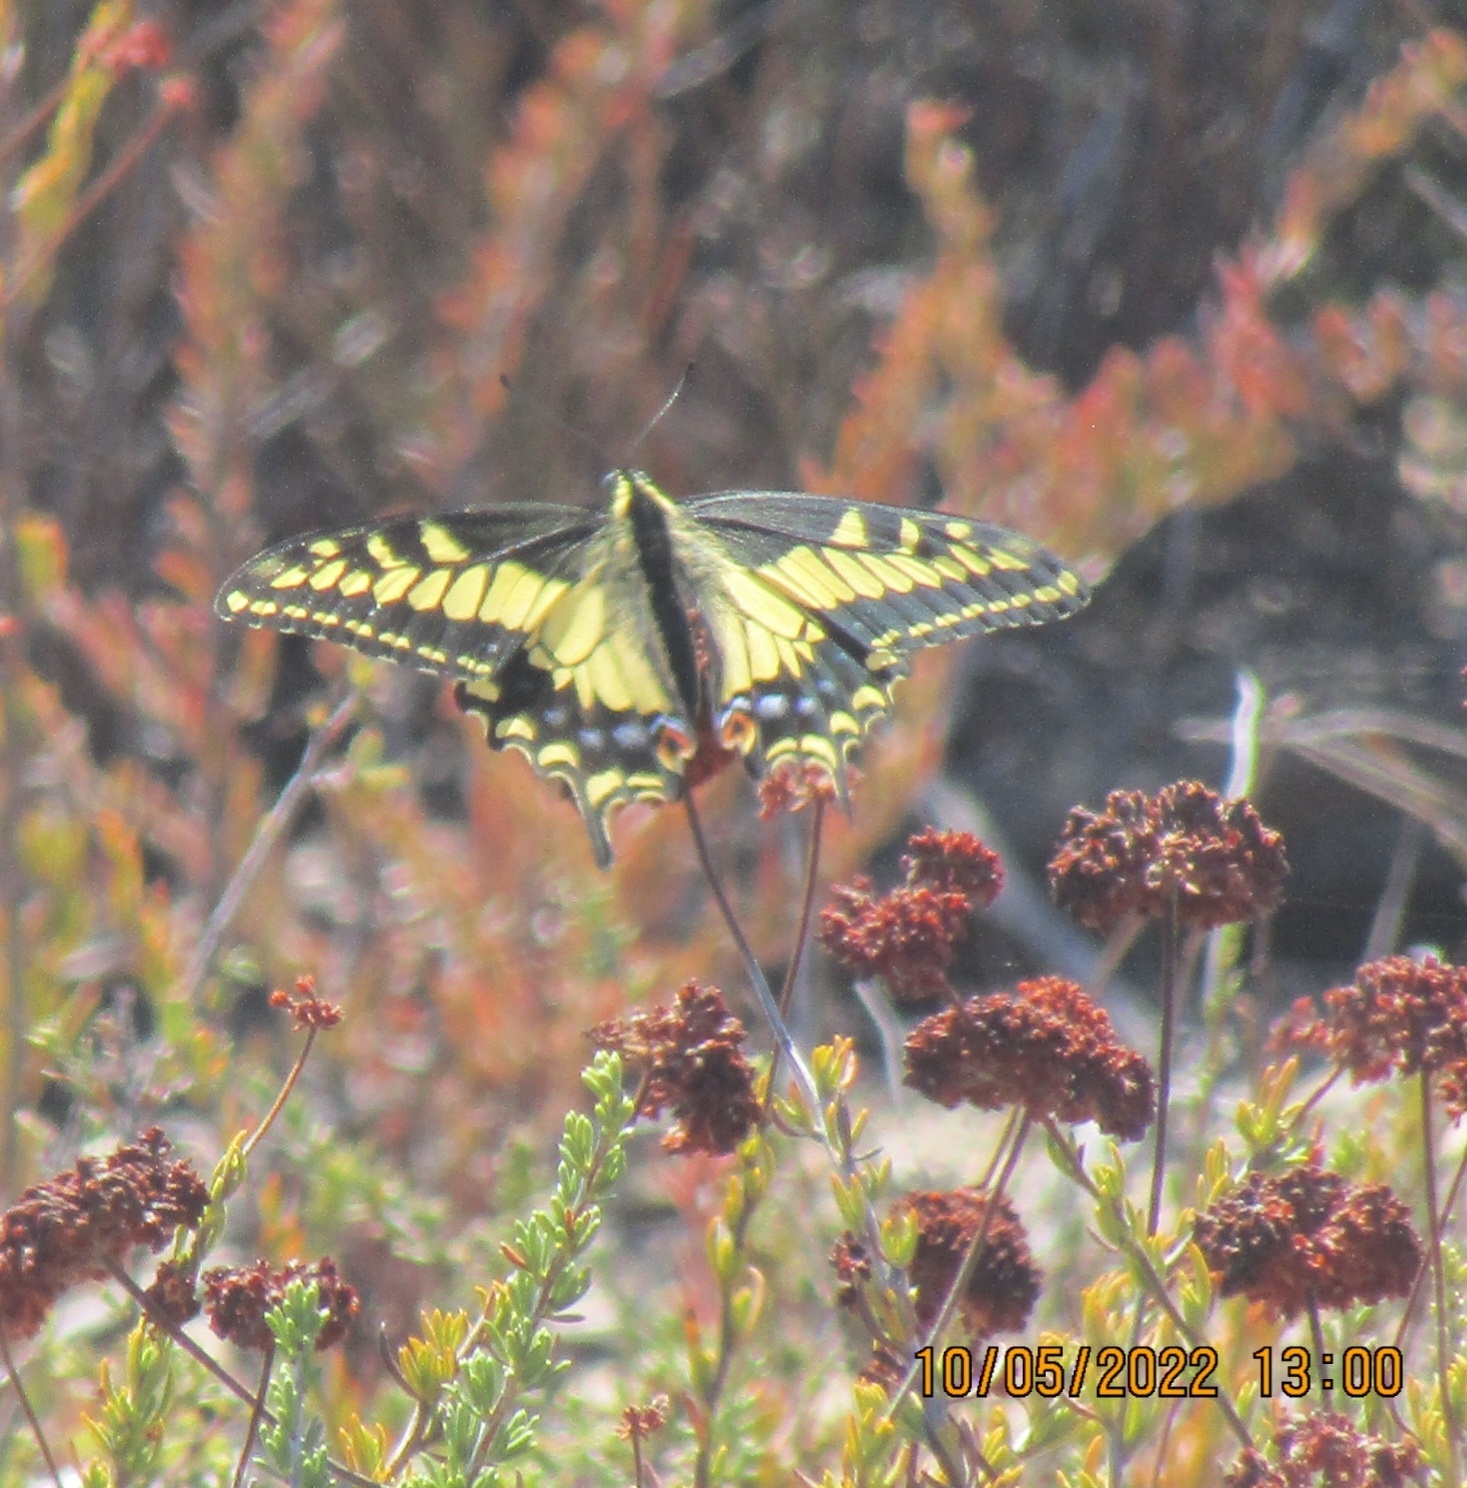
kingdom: Animalia
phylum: Arthropoda
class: Insecta
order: Lepidoptera
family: Papilionidae
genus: Papilio
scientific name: Papilio zelicaon
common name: Anise swallowtail
